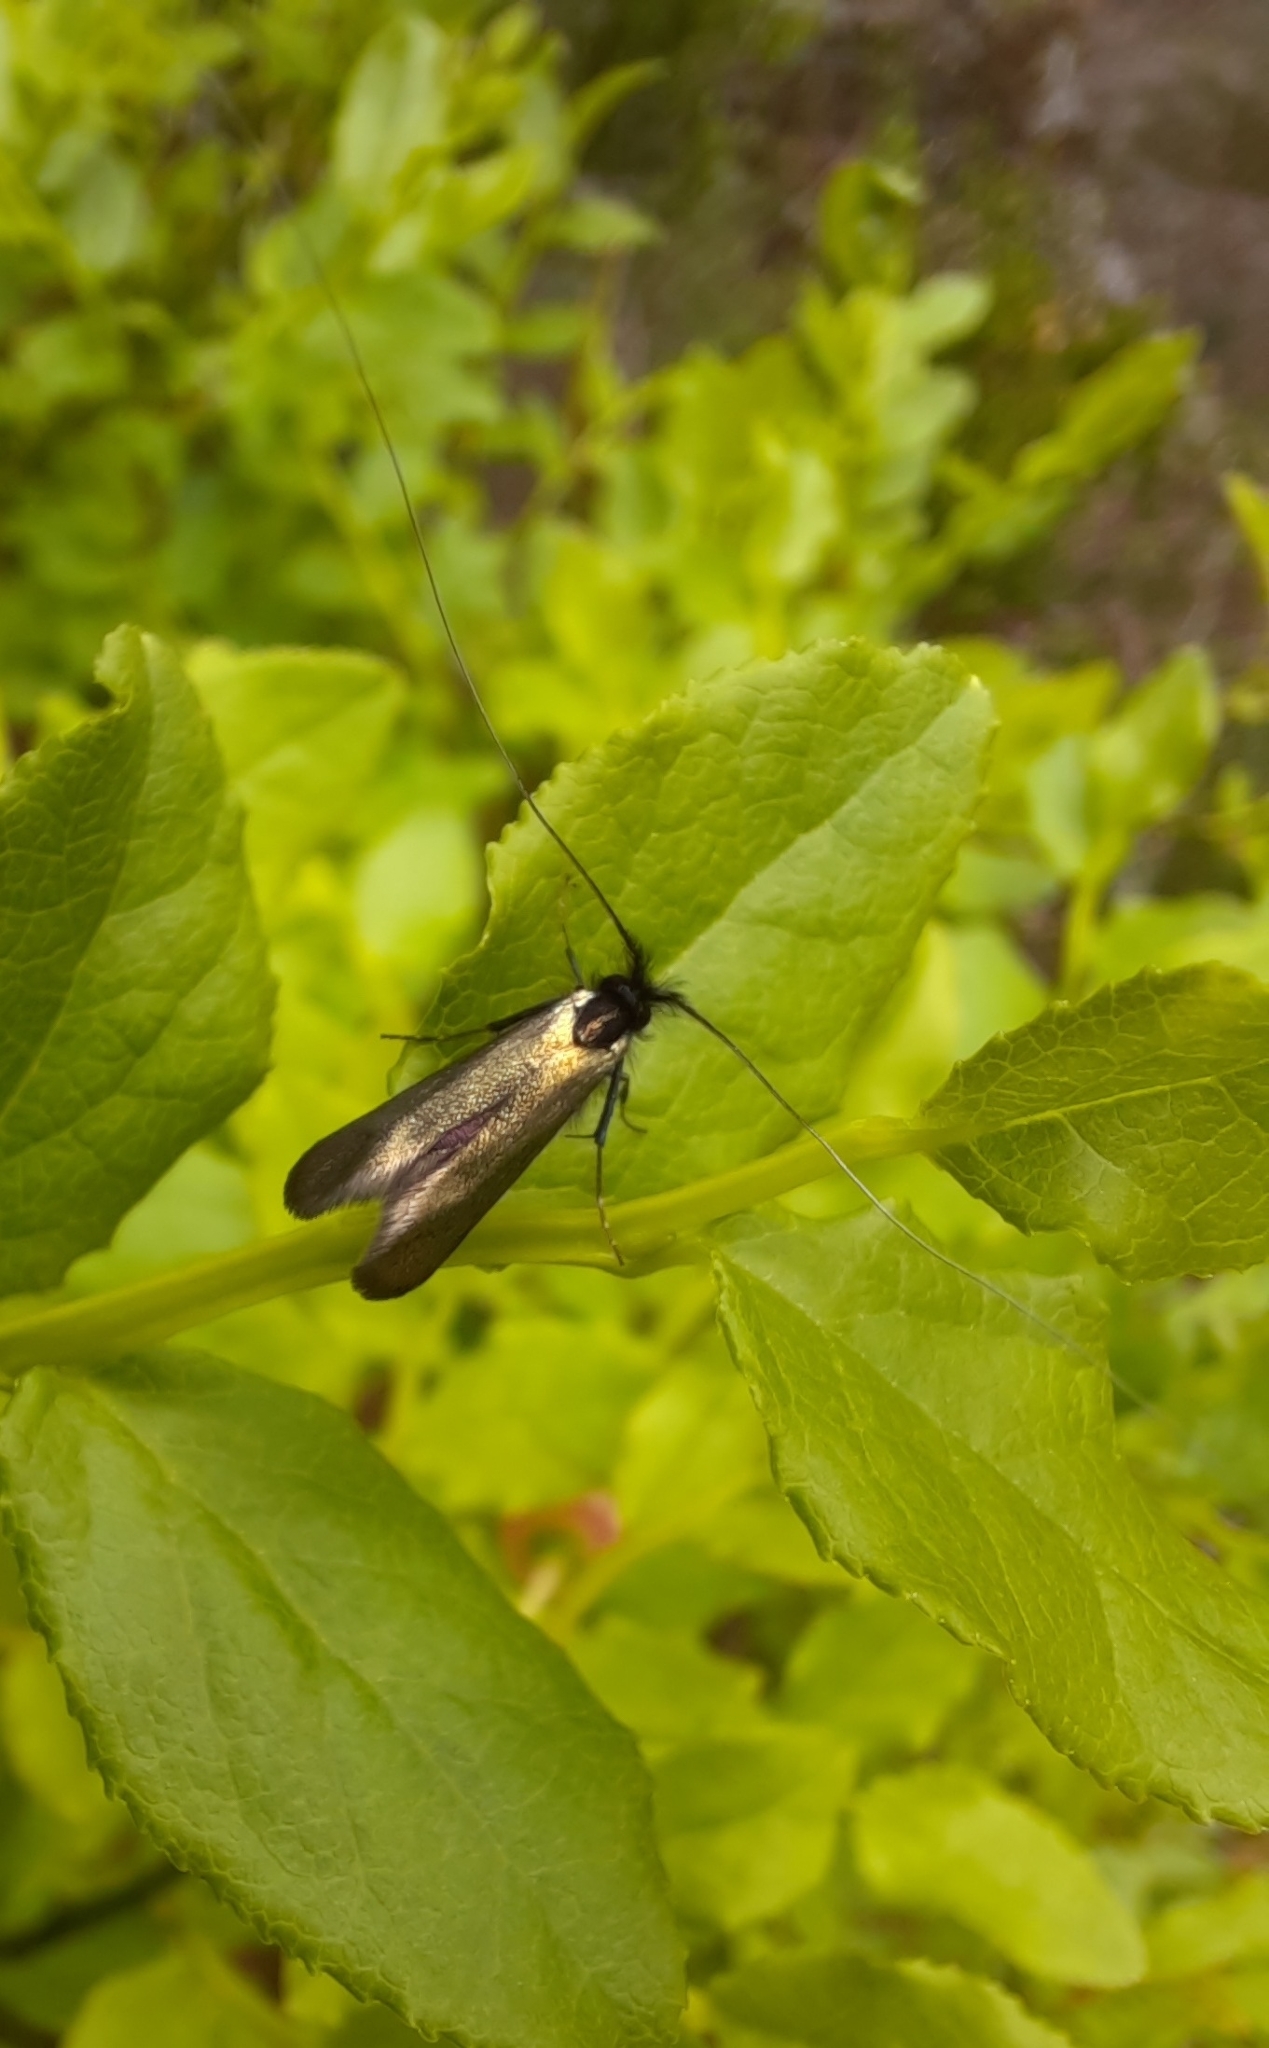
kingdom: Animalia
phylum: Arthropoda
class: Insecta
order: Lepidoptera
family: Adelidae
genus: Adela
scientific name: Adela viridella
